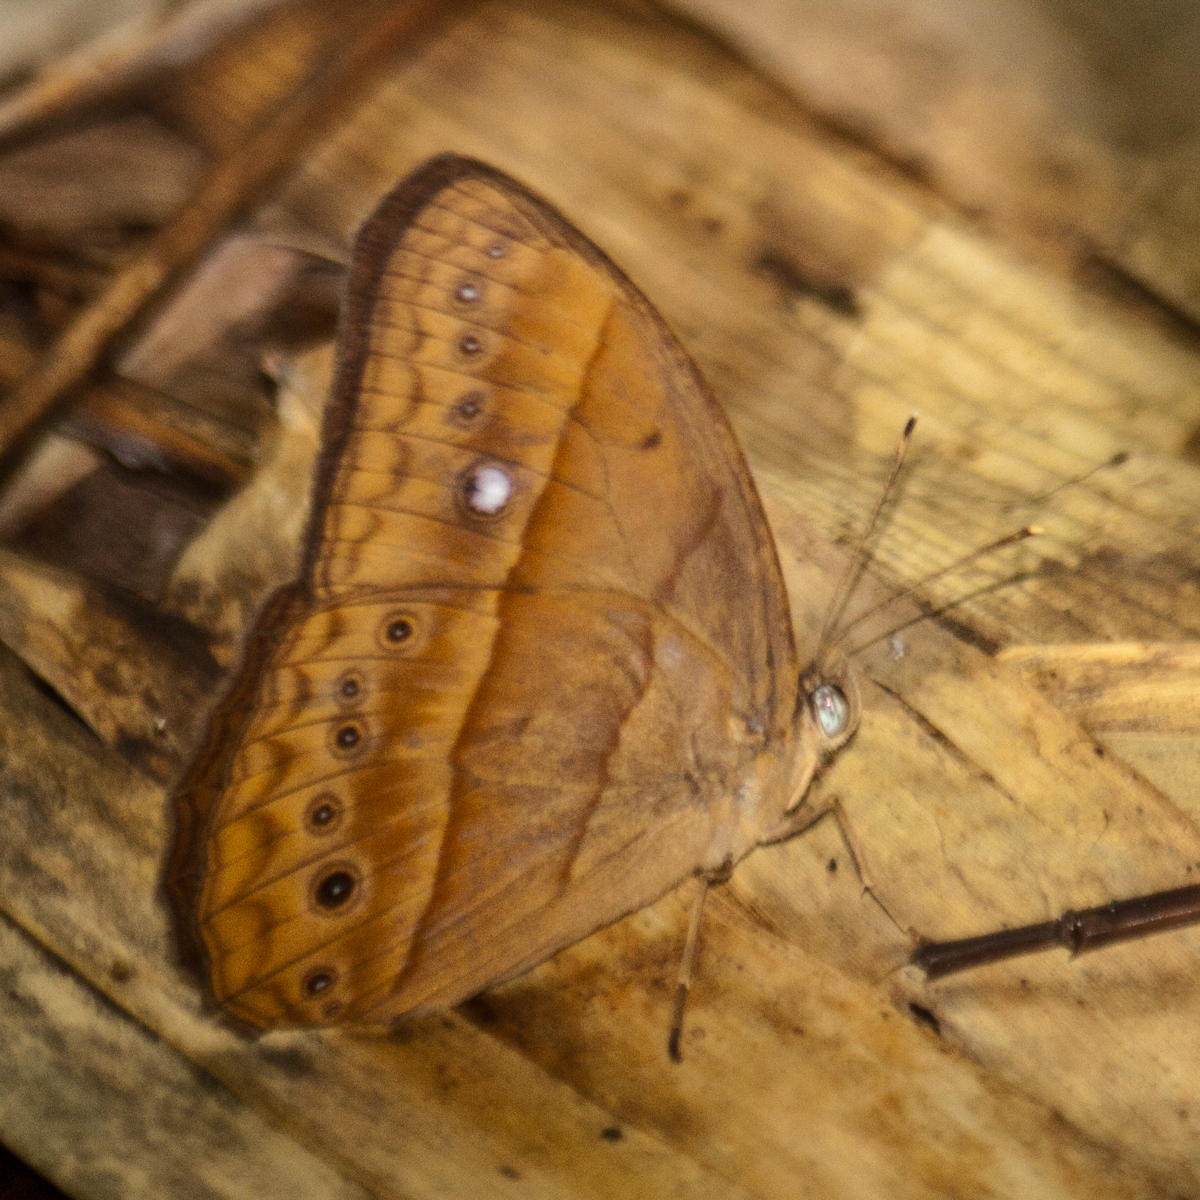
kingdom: Animalia
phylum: Arthropoda
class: Insecta
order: Lepidoptera
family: Nymphalidae
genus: Mycalesis
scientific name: Mycalesis mnasicles
